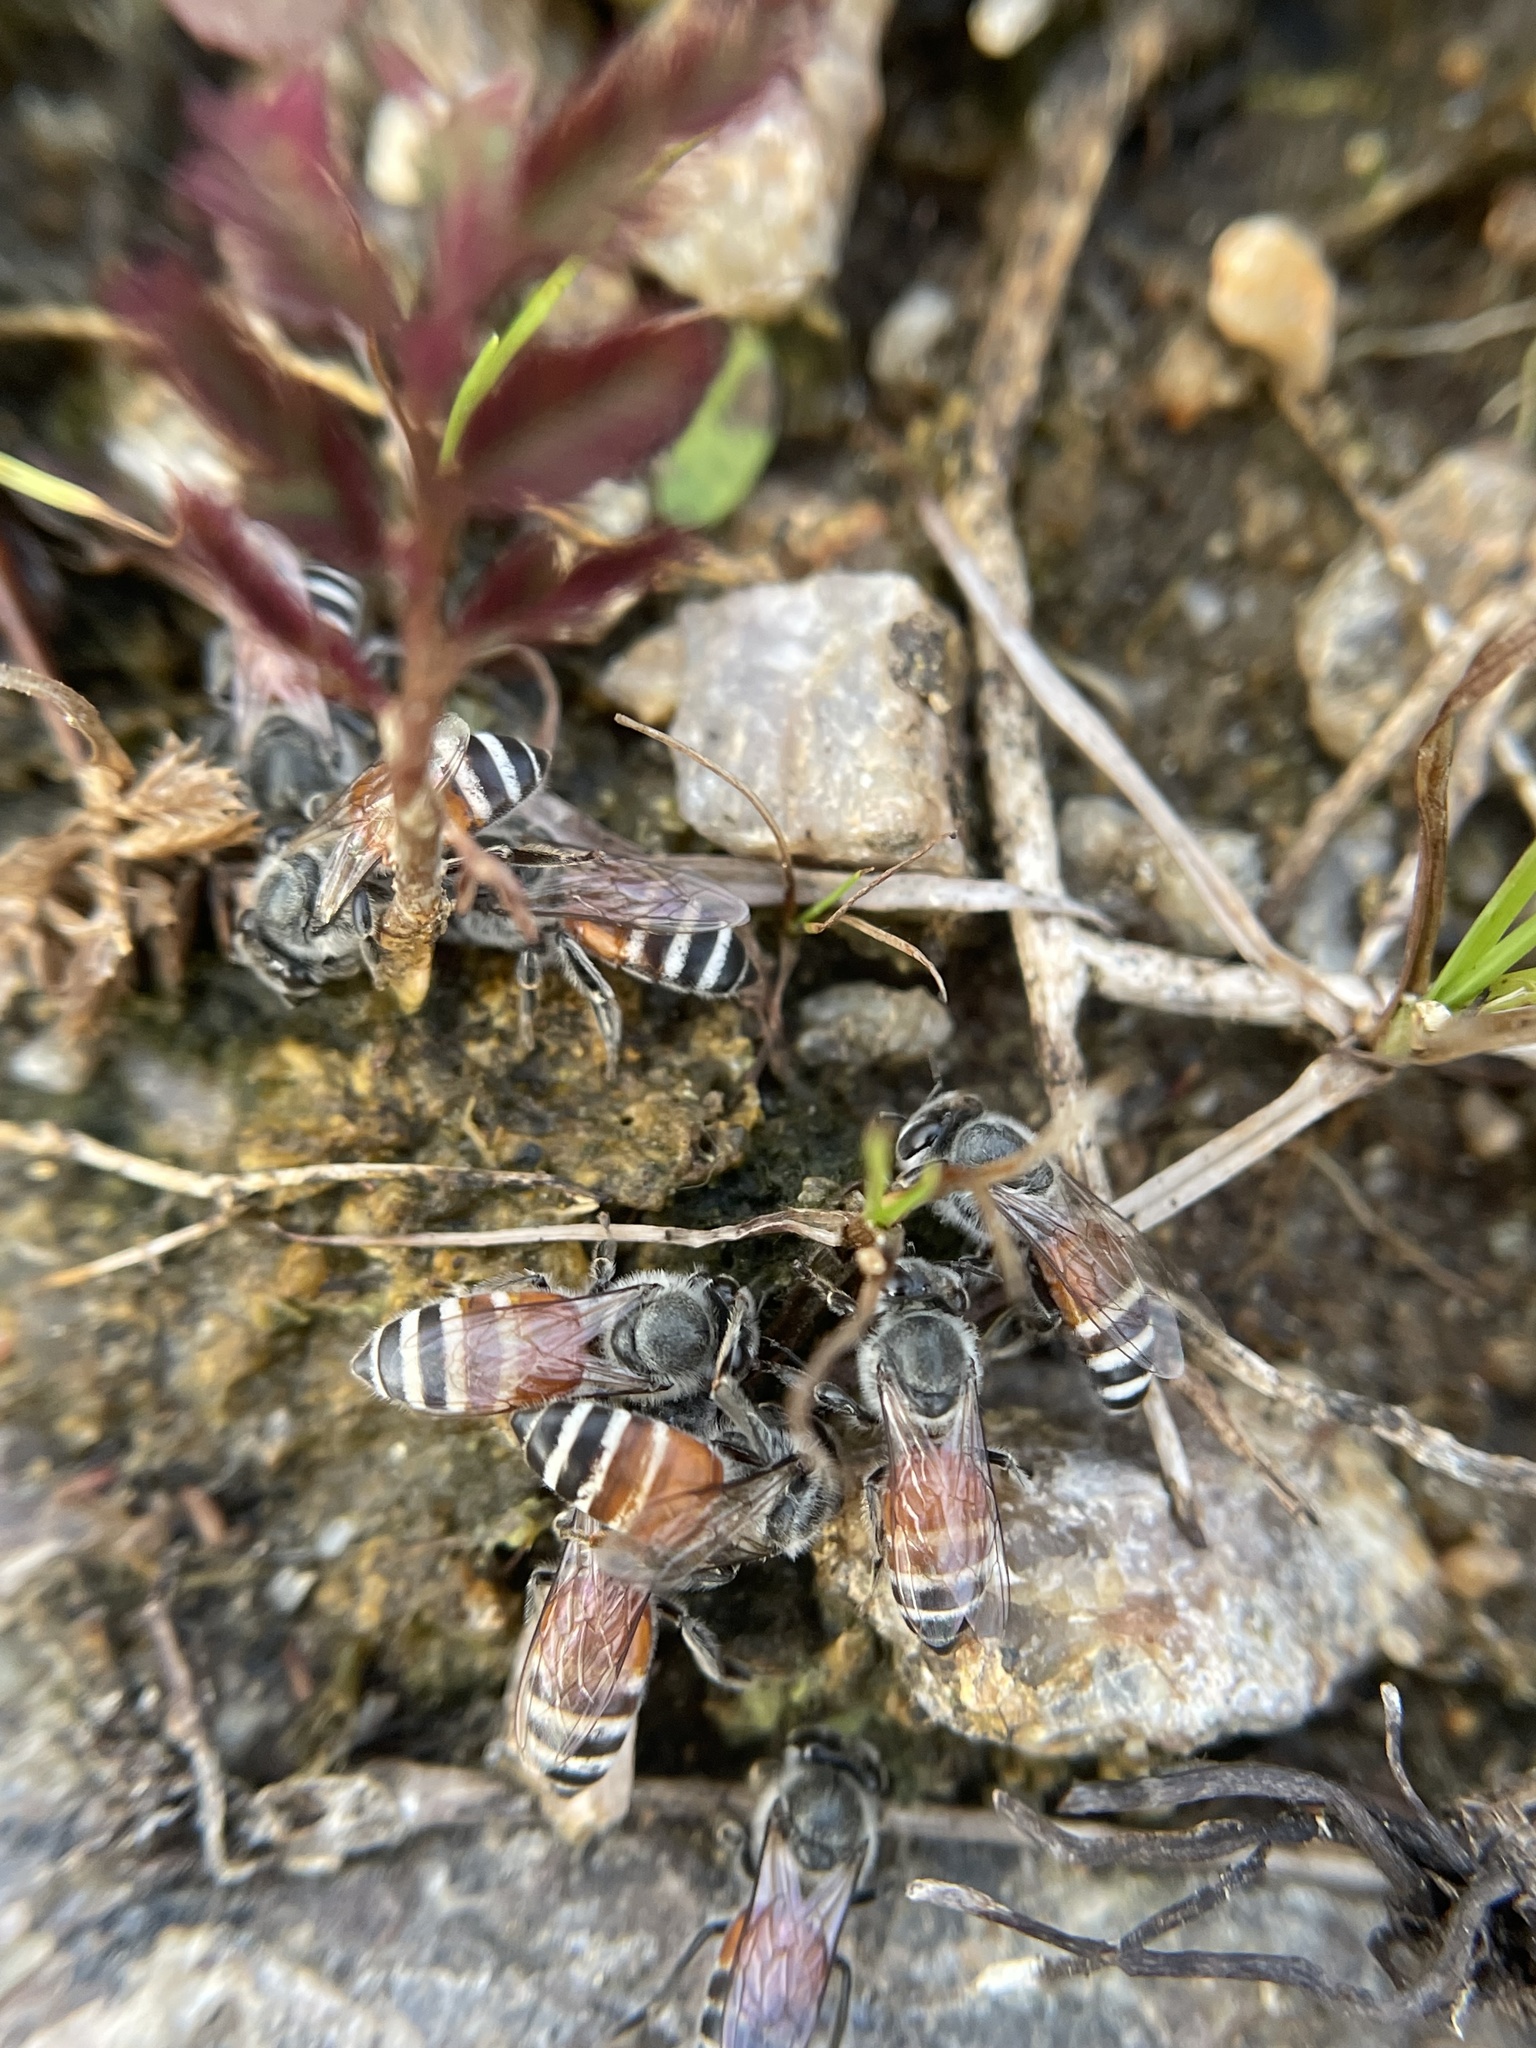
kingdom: Animalia
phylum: Arthropoda
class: Insecta
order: Hymenoptera
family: Apidae
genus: Apis
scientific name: Apis florea
